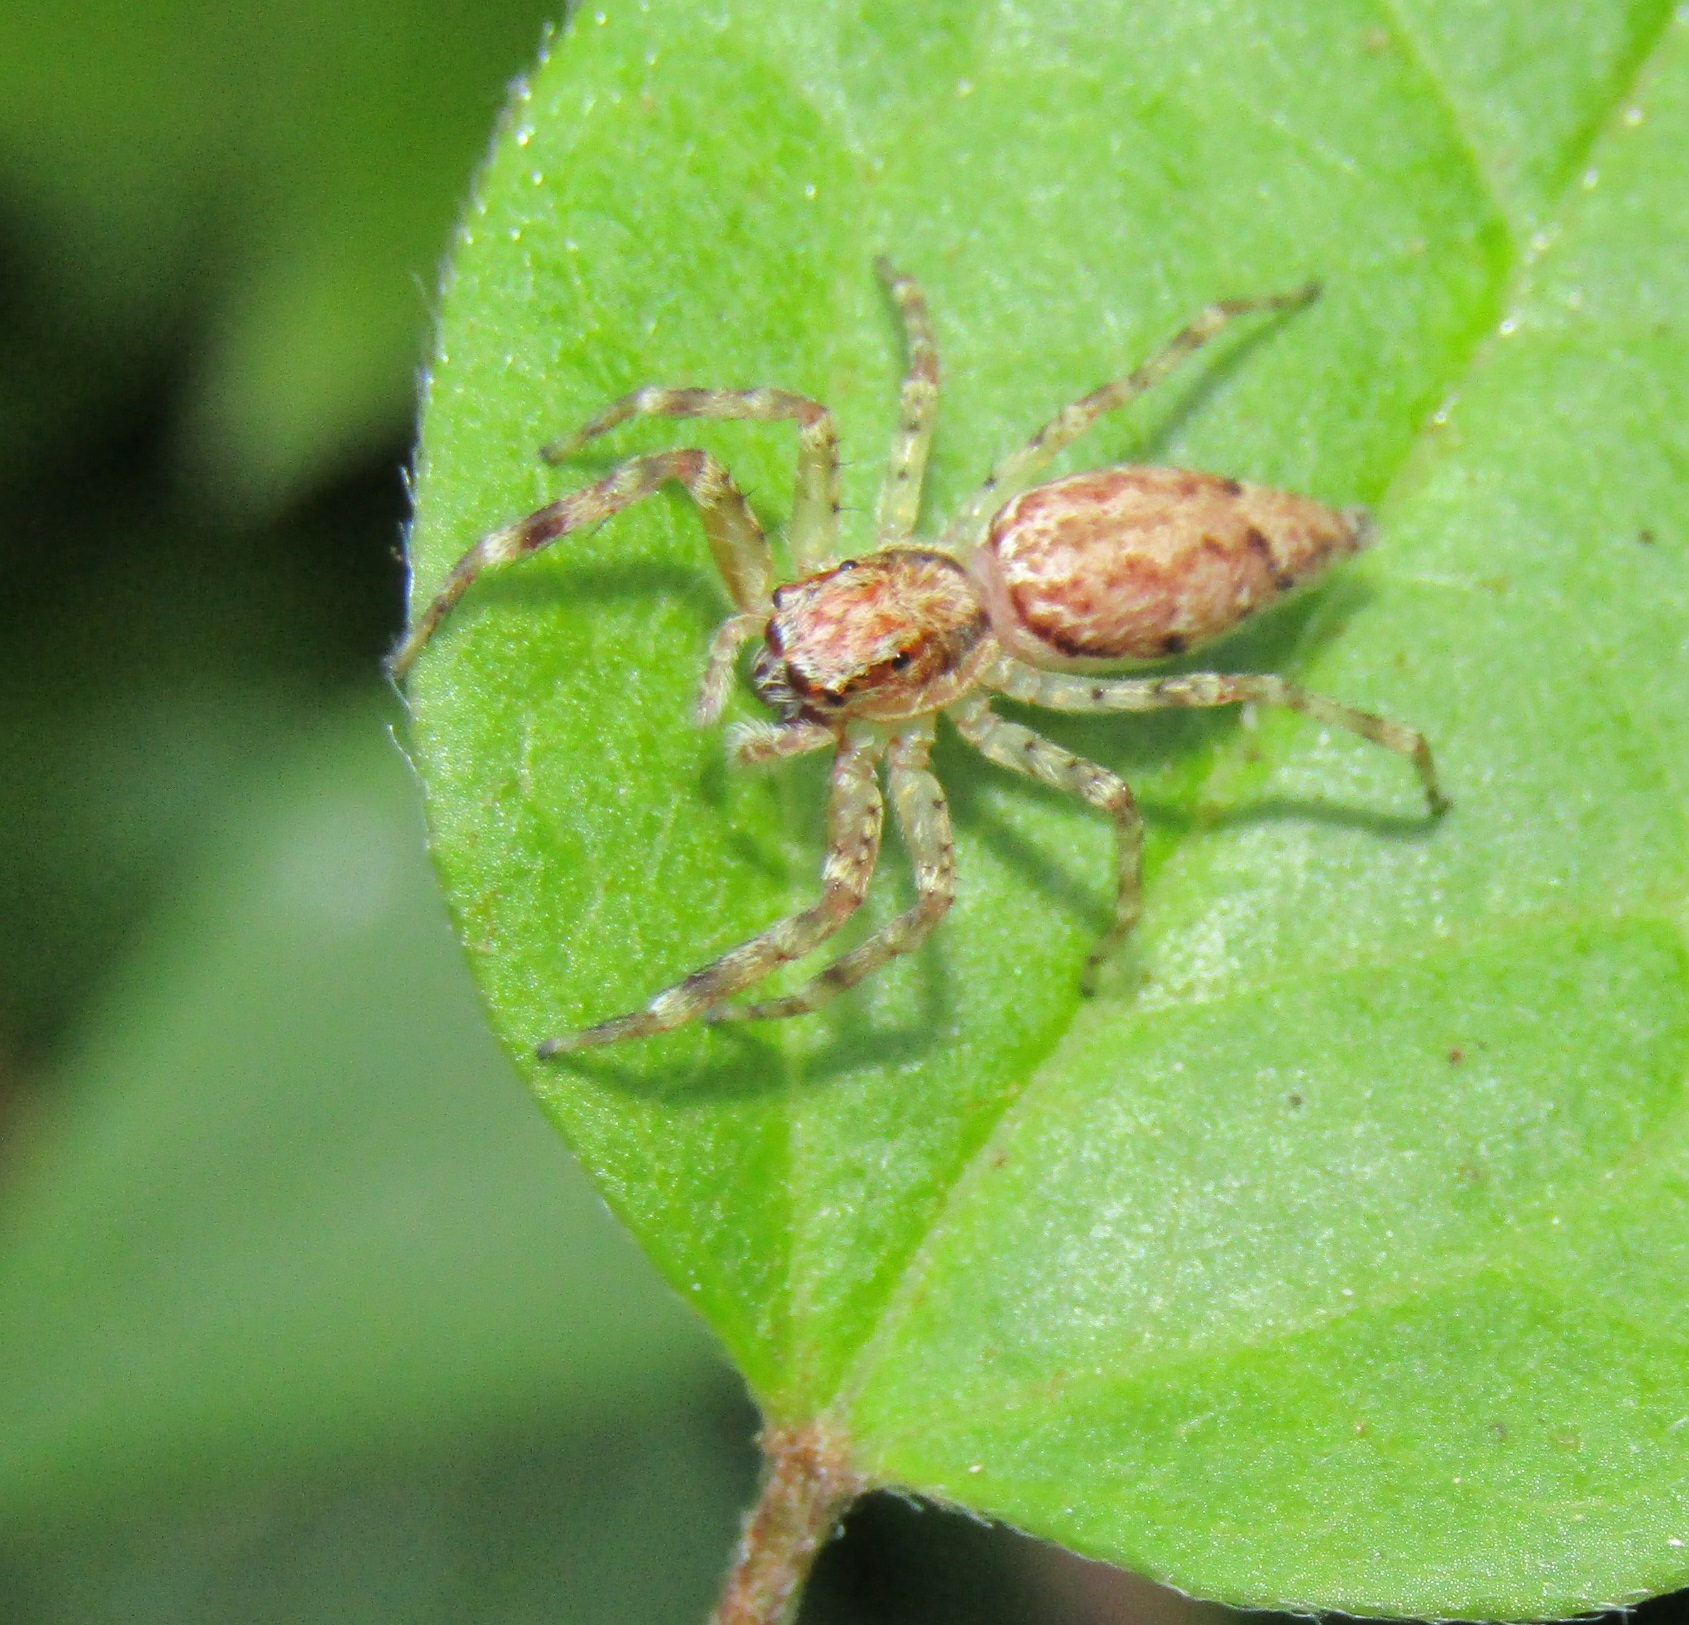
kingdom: Animalia
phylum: Arthropoda
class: Arachnida
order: Araneae
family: Salticidae
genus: Helpis
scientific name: Helpis minitabunda
